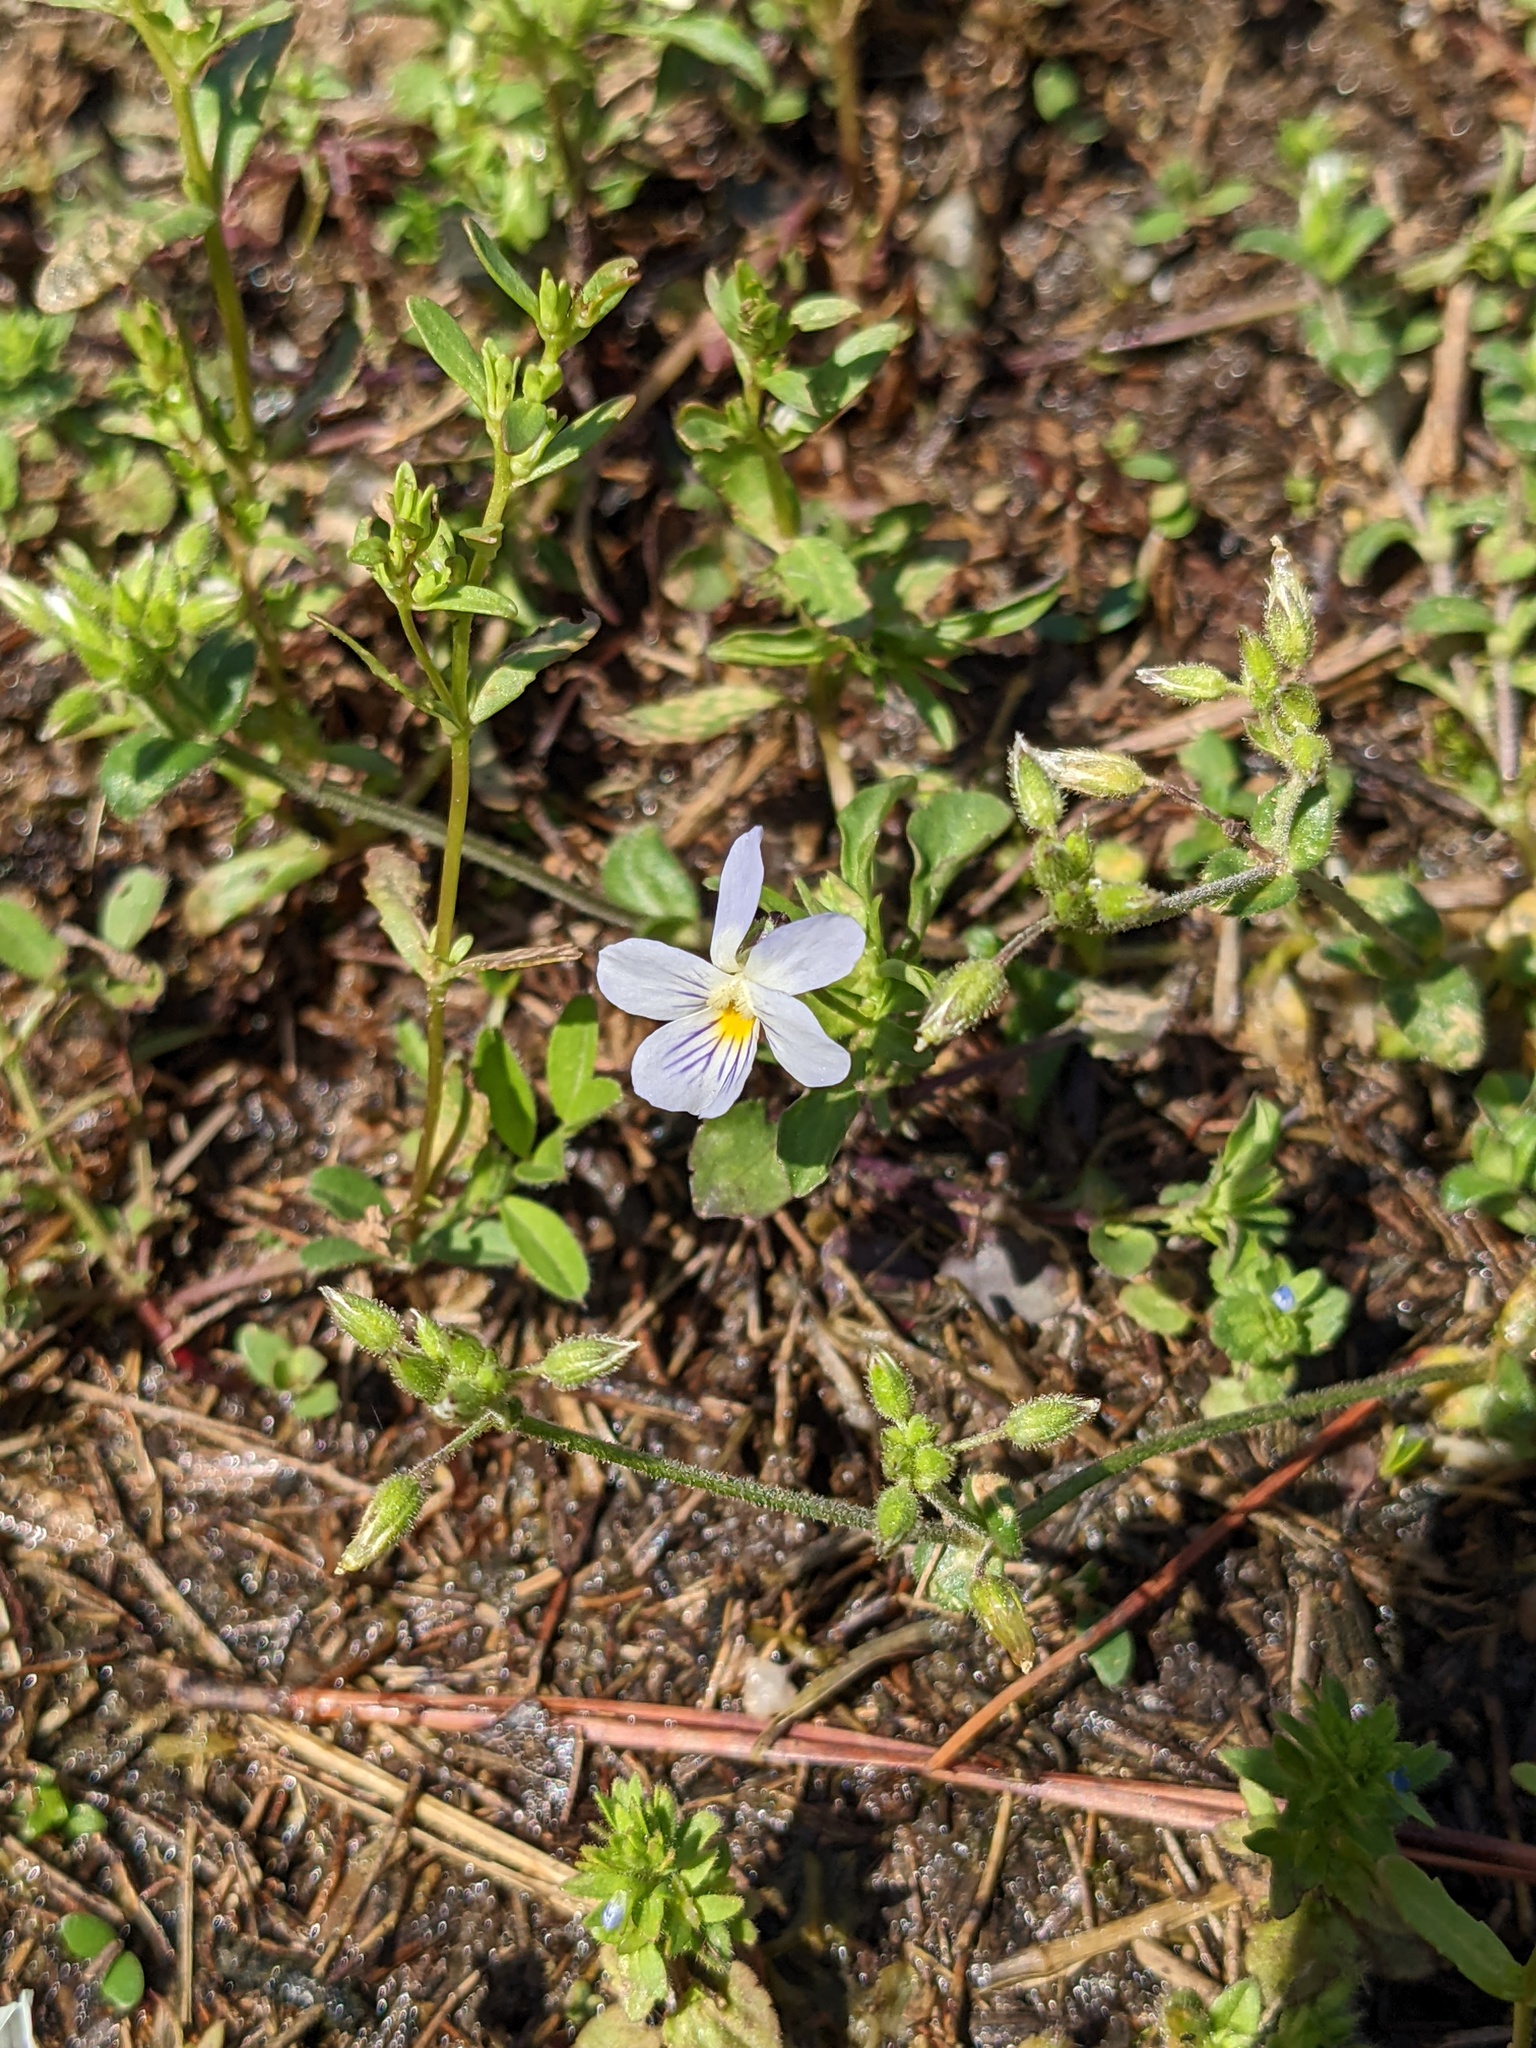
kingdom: Plantae
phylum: Tracheophyta
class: Magnoliopsida
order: Malpighiales
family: Violaceae
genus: Viola
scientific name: Viola rafinesquei
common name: American field pansy
